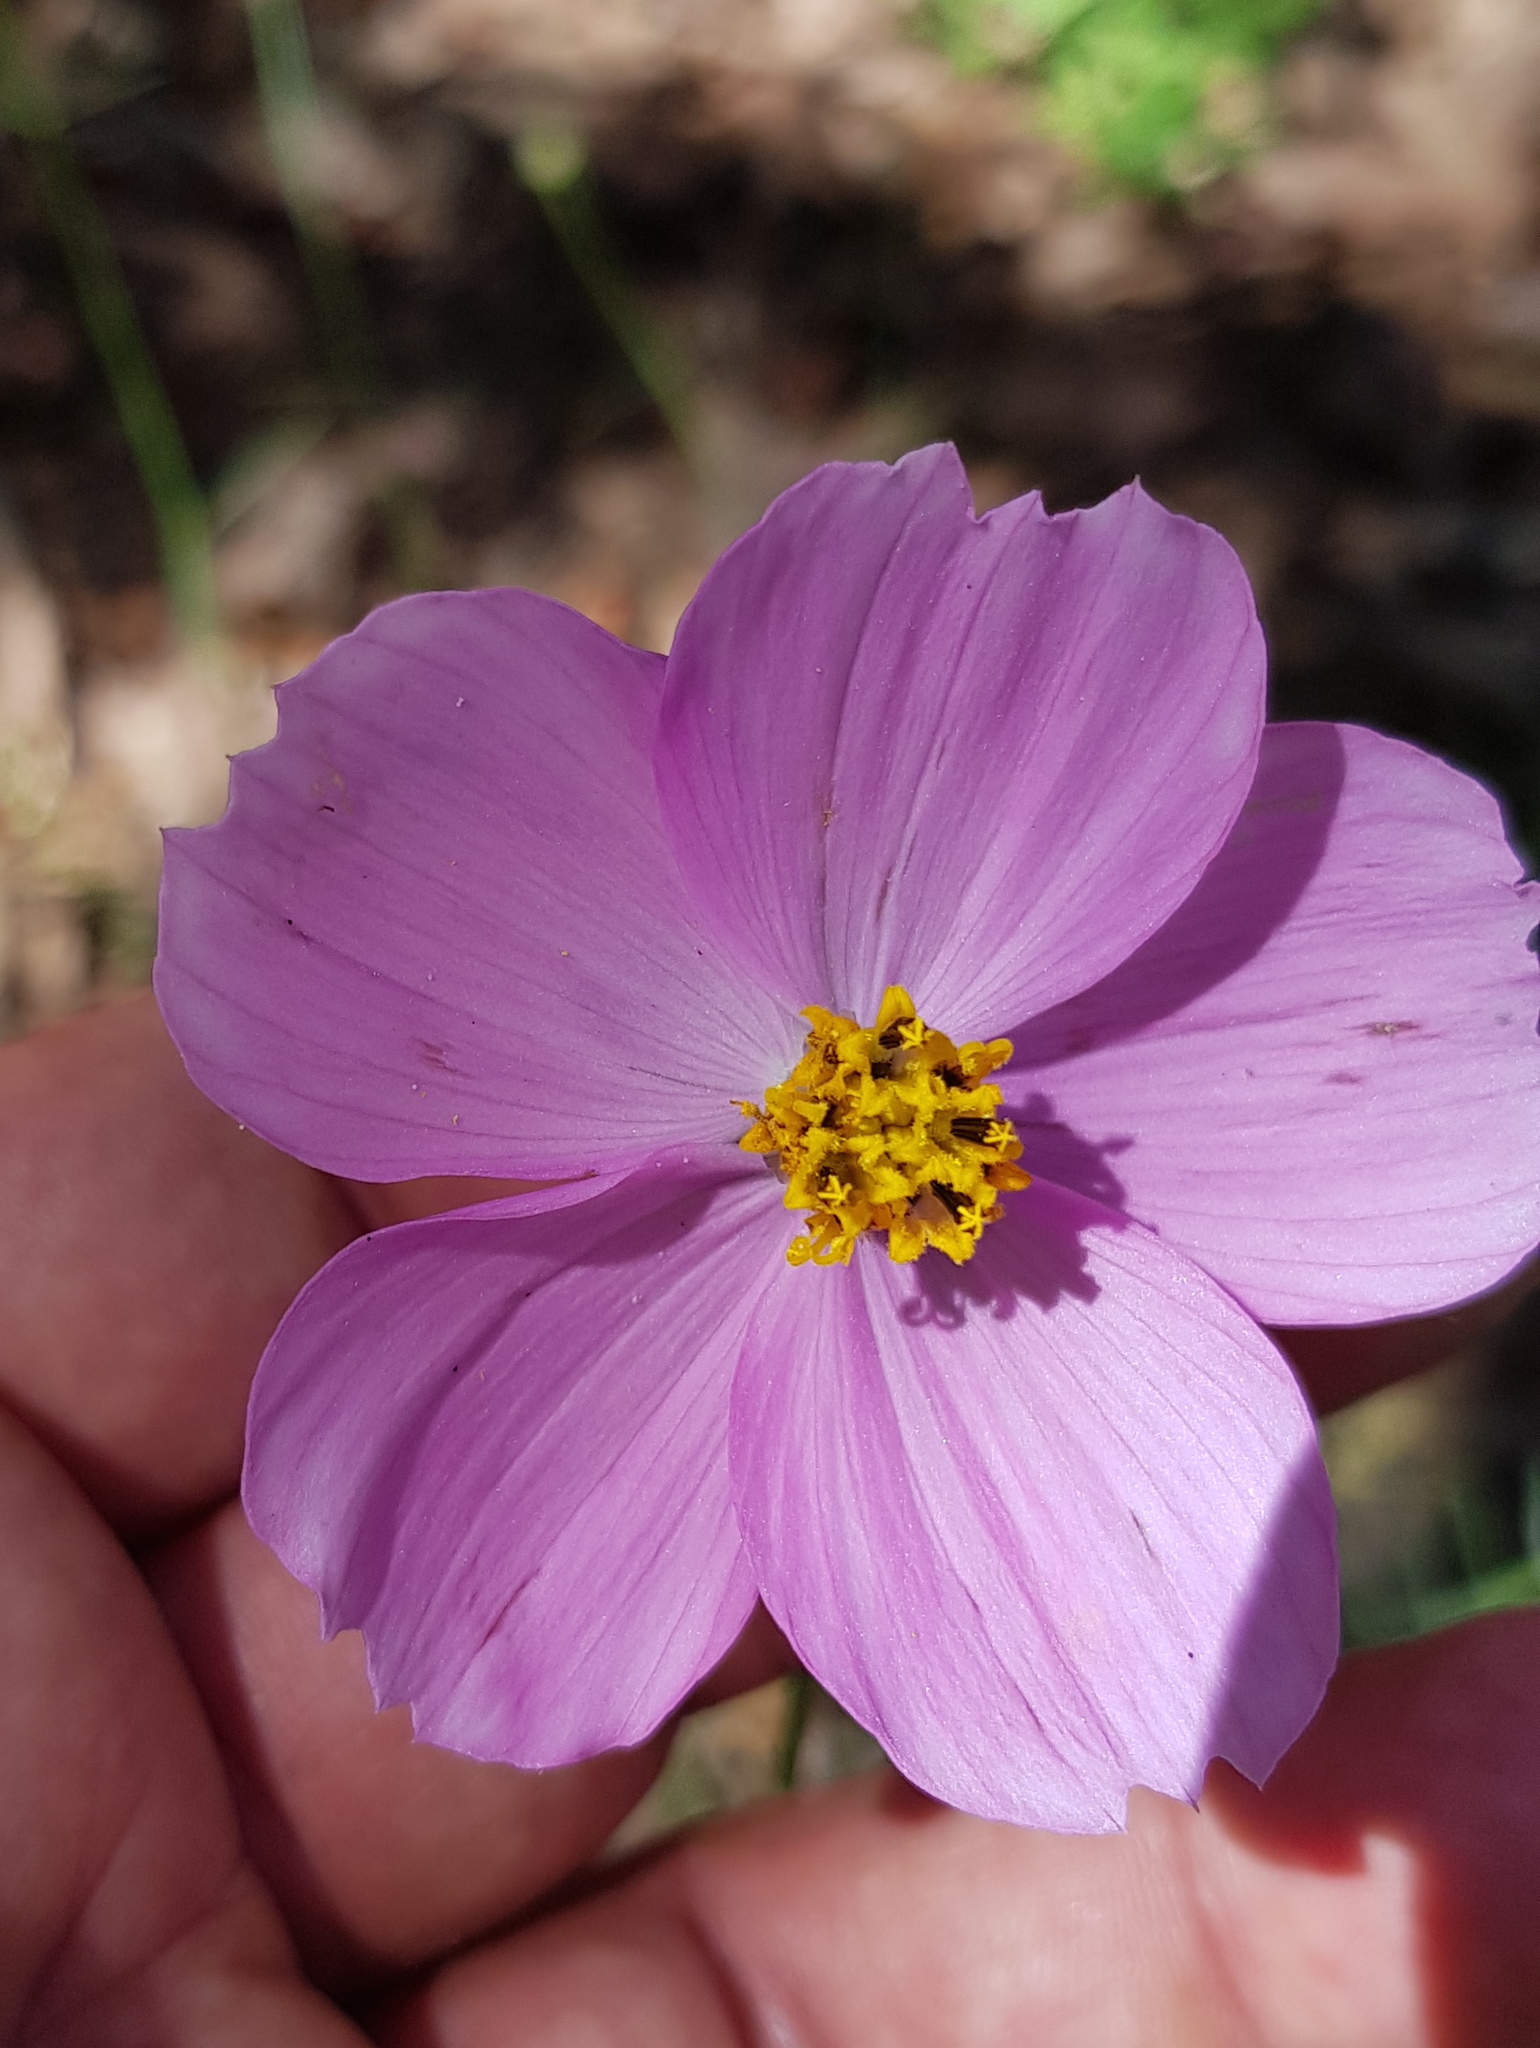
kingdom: Plantae
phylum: Tracheophyta
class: Magnoliopsida
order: Asterales
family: Asteraceae
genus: Cosmos
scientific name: Cosmos crithmifolius
